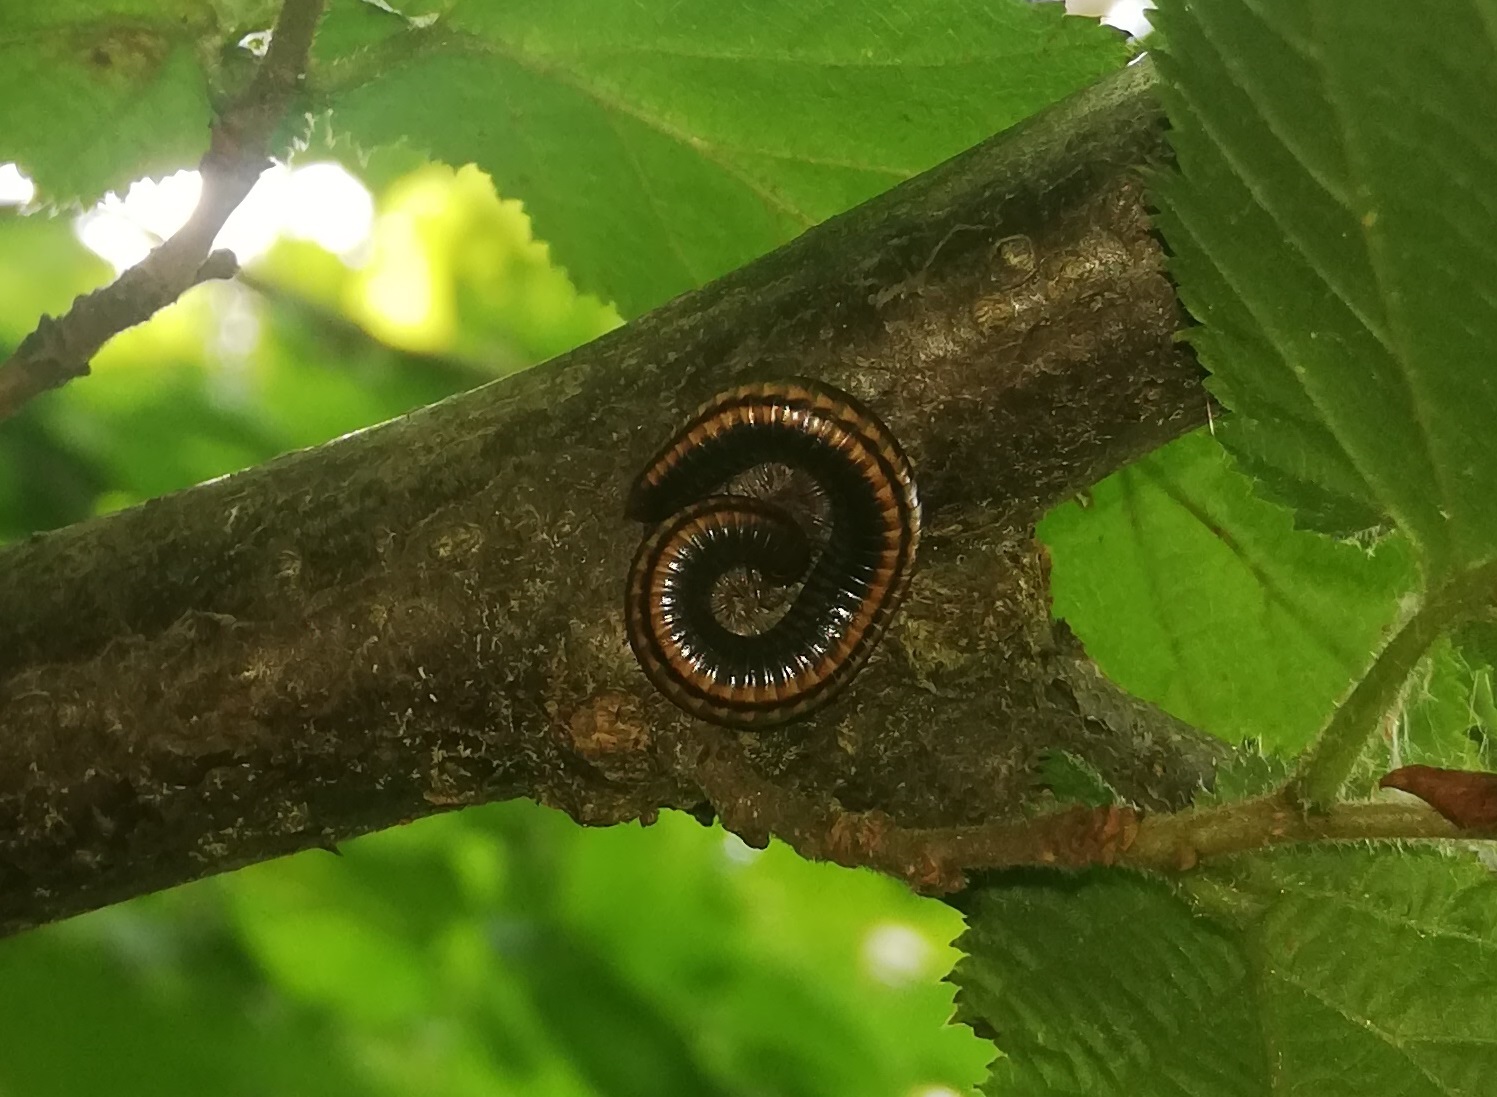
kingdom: Animalia
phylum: Arthropoda
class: Diplopoda
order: Julida
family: Julidae
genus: Ommatoiulus
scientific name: Ommatoiulus sabulosus
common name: Striped millipede
